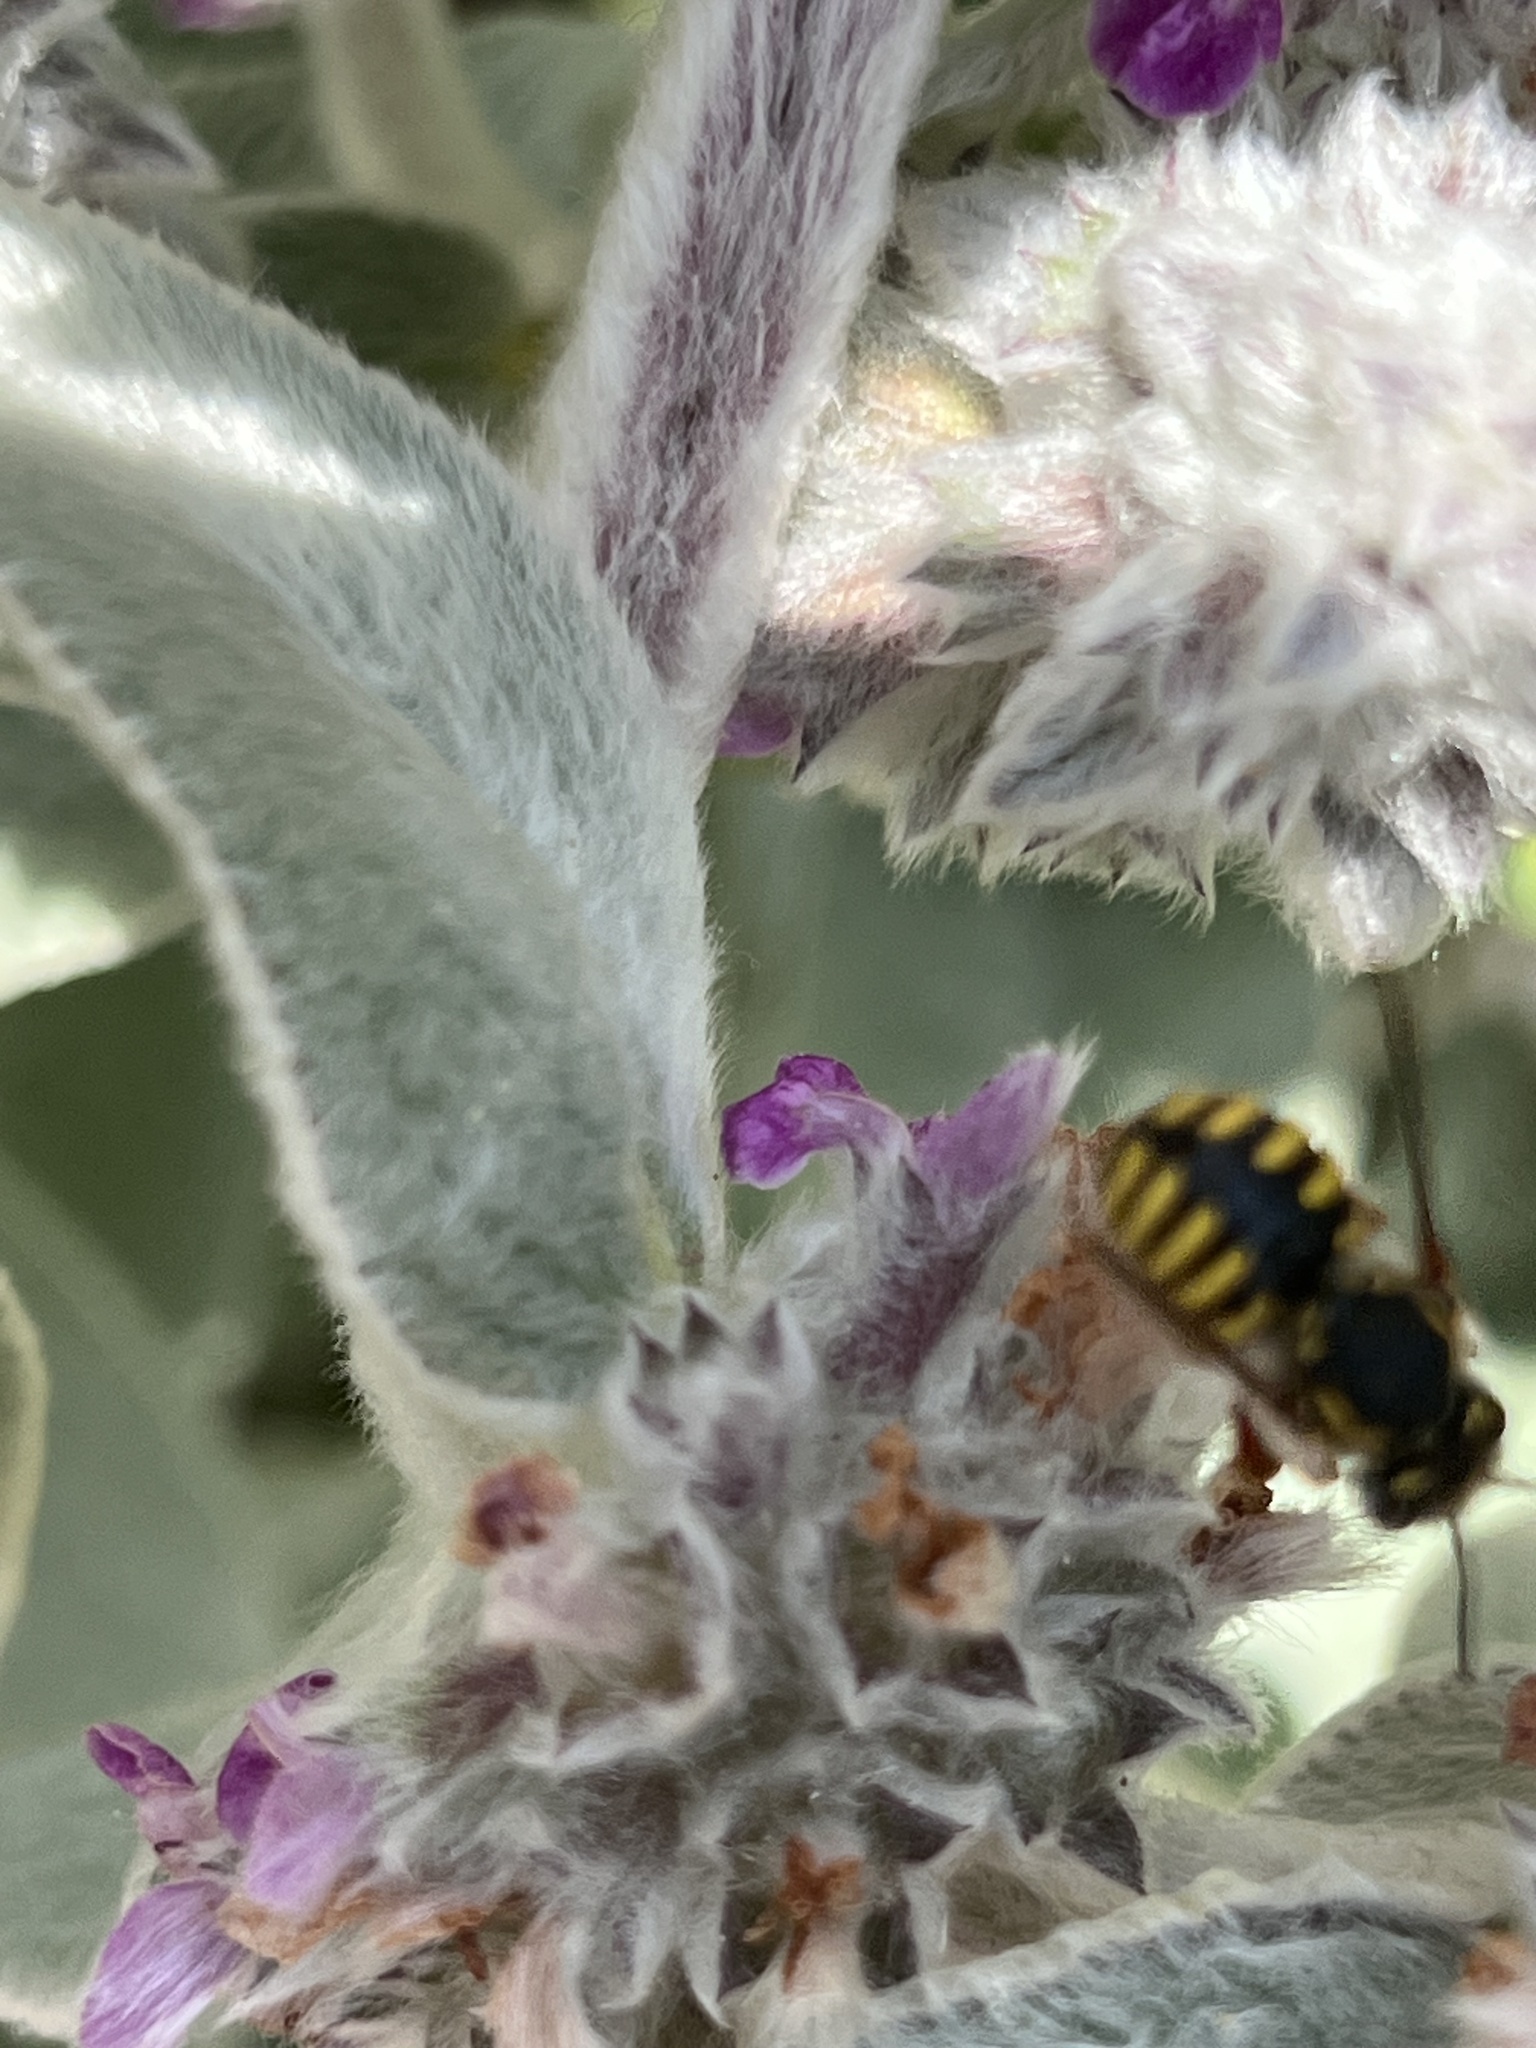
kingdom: Animalia
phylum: Arthropoda
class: Insecta
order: Hymenoptera
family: Megachilidae
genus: Anthidium
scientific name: Anthidium manicatum
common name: Wool carder bee
